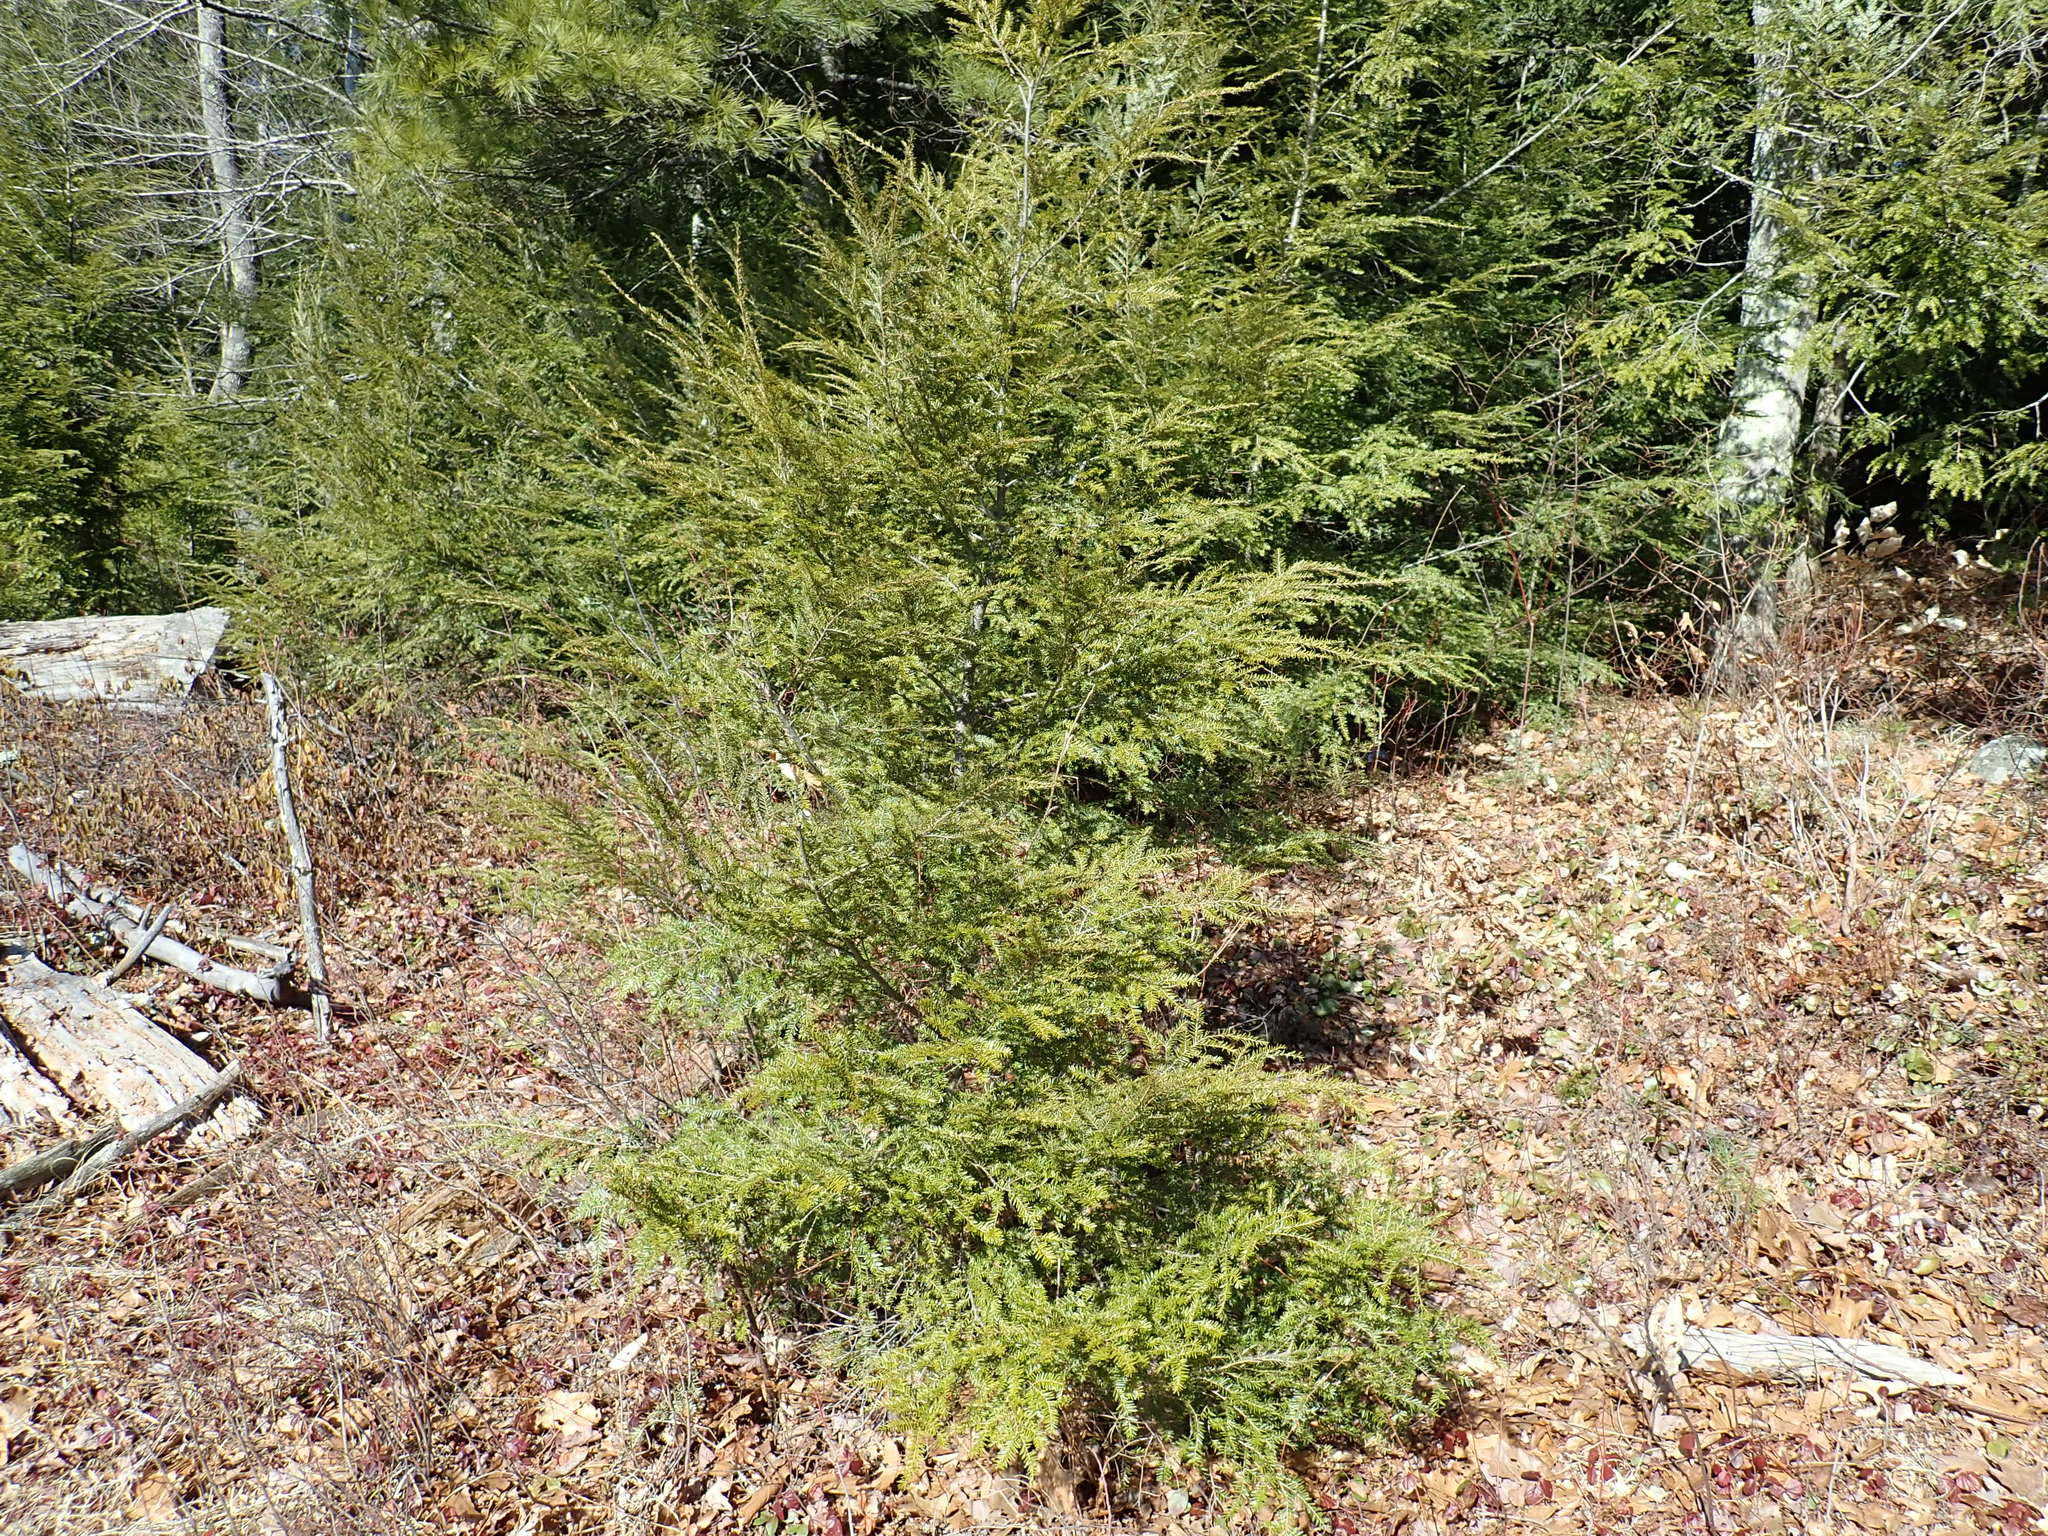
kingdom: Plantae
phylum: Tracheophyta
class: Pinopsida
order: Pinales
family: Pinaceae
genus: Tsuga
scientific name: Tsuga canadensis
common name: Eastern hemlock
